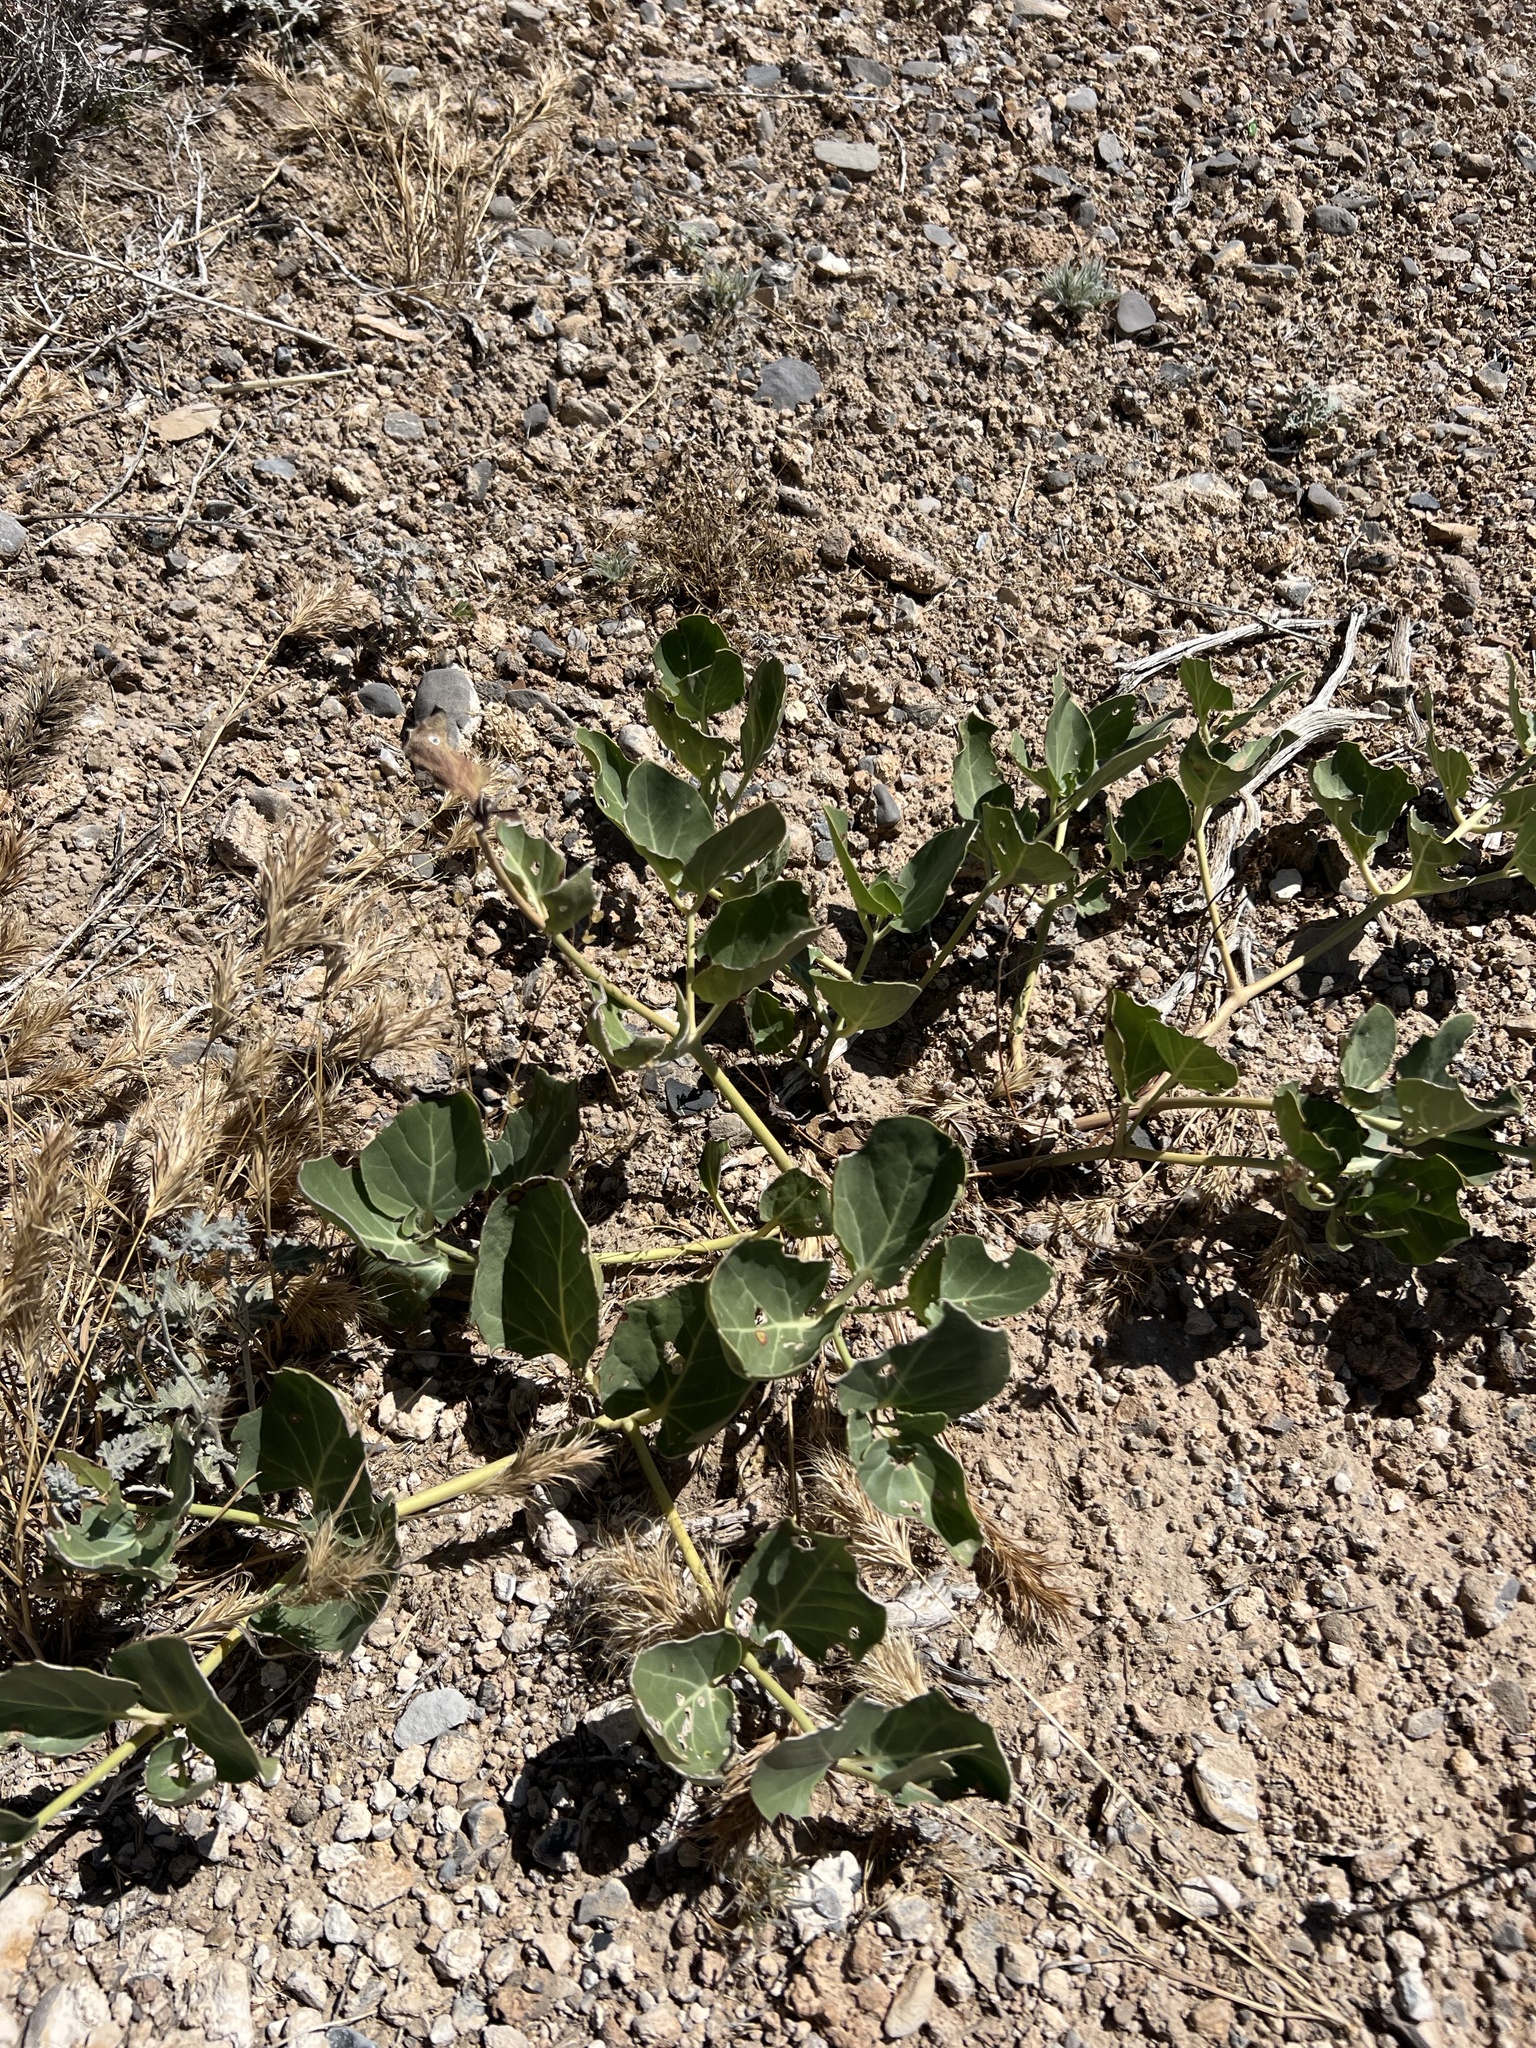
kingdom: Plantae
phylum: Tracheophyta
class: Magnoliopsida
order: Caryophyllales
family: Nyctaginaceae
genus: Mirabilis
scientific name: Mirabilis multiflora
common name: Froebel's four-o'clock
